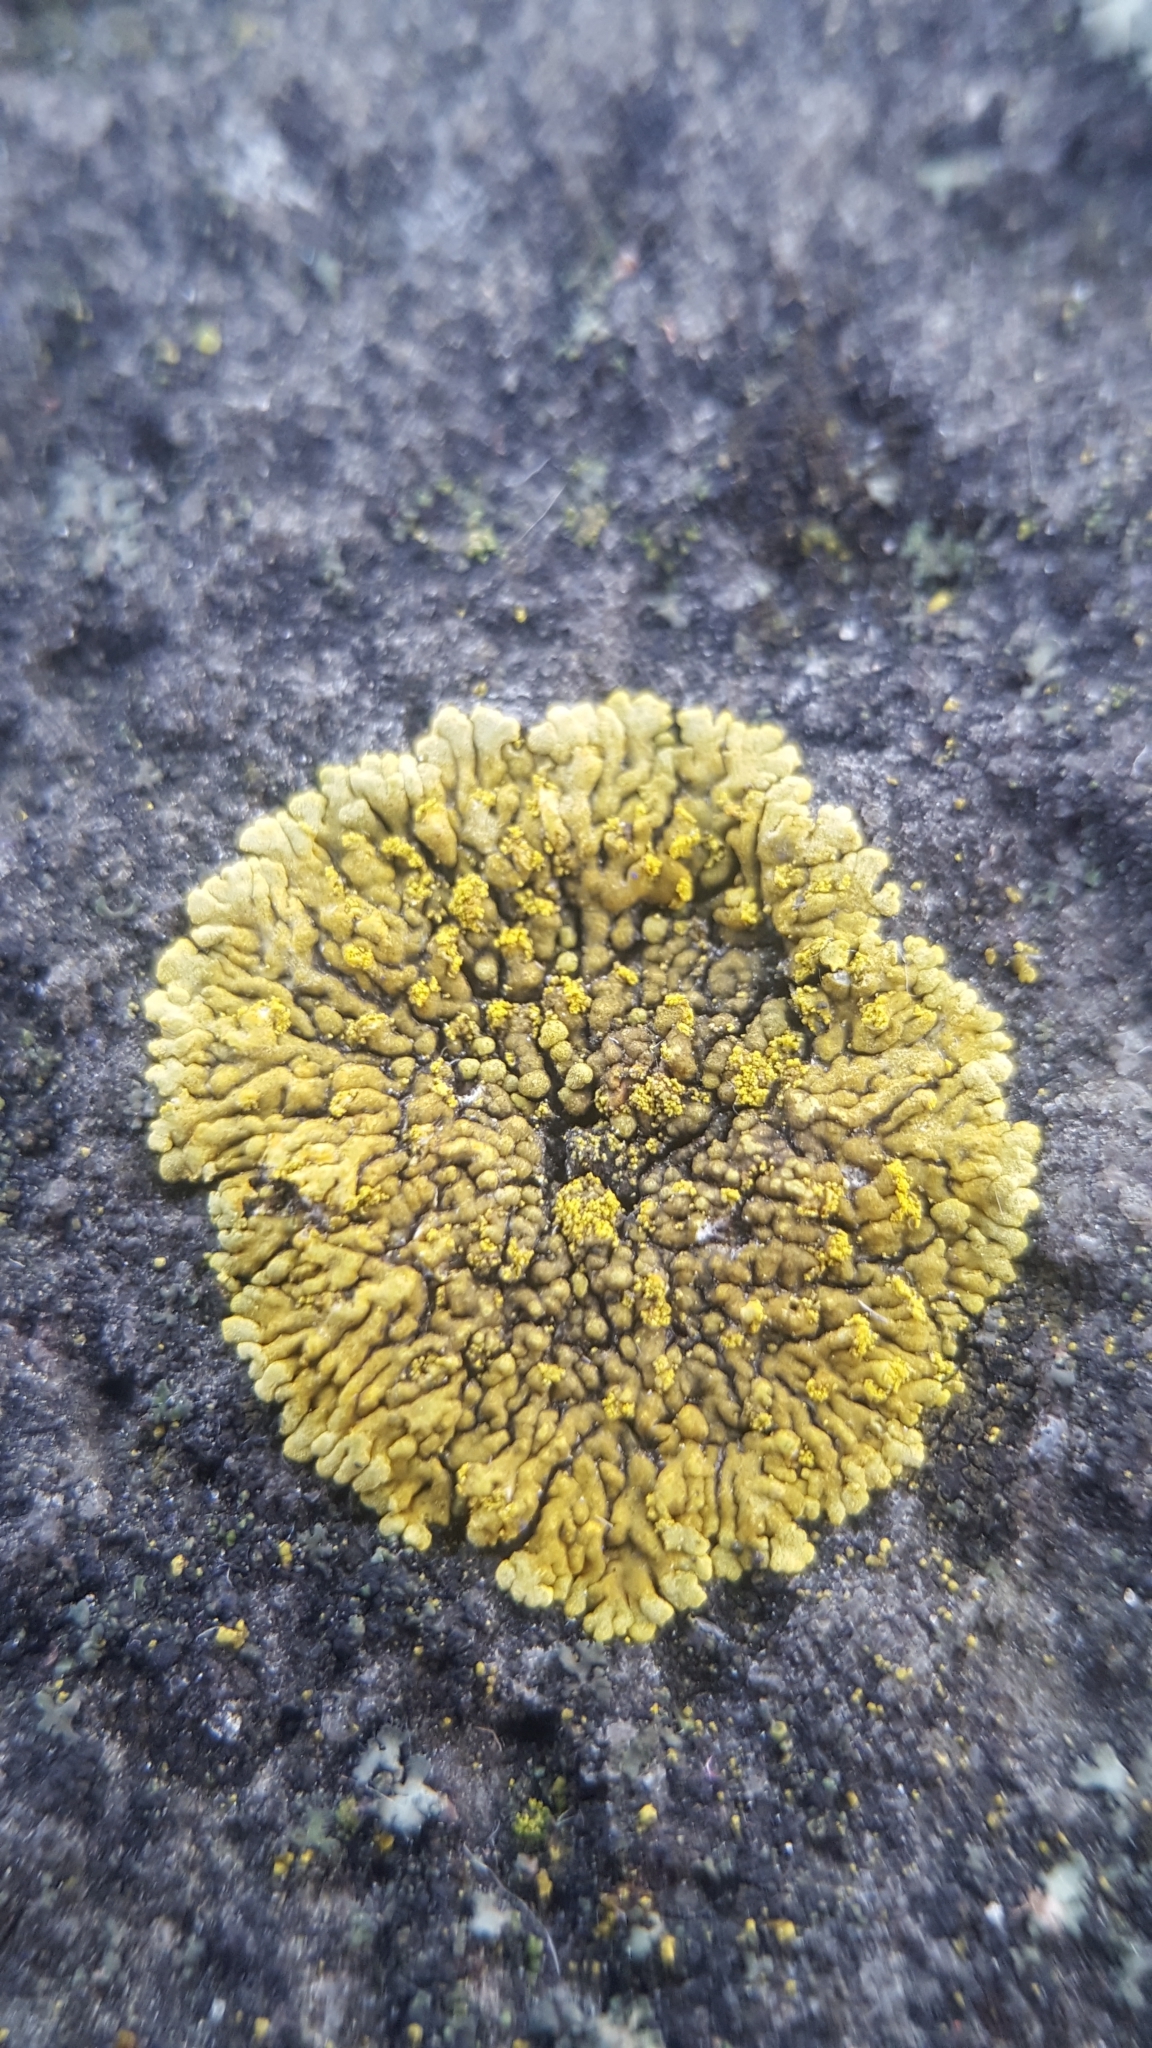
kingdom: Fungi
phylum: Ascomycota
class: Lecanoromycetes
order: Teloschistales
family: Teloschistaceae
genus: Calogaya
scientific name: Calogaya decipiens
